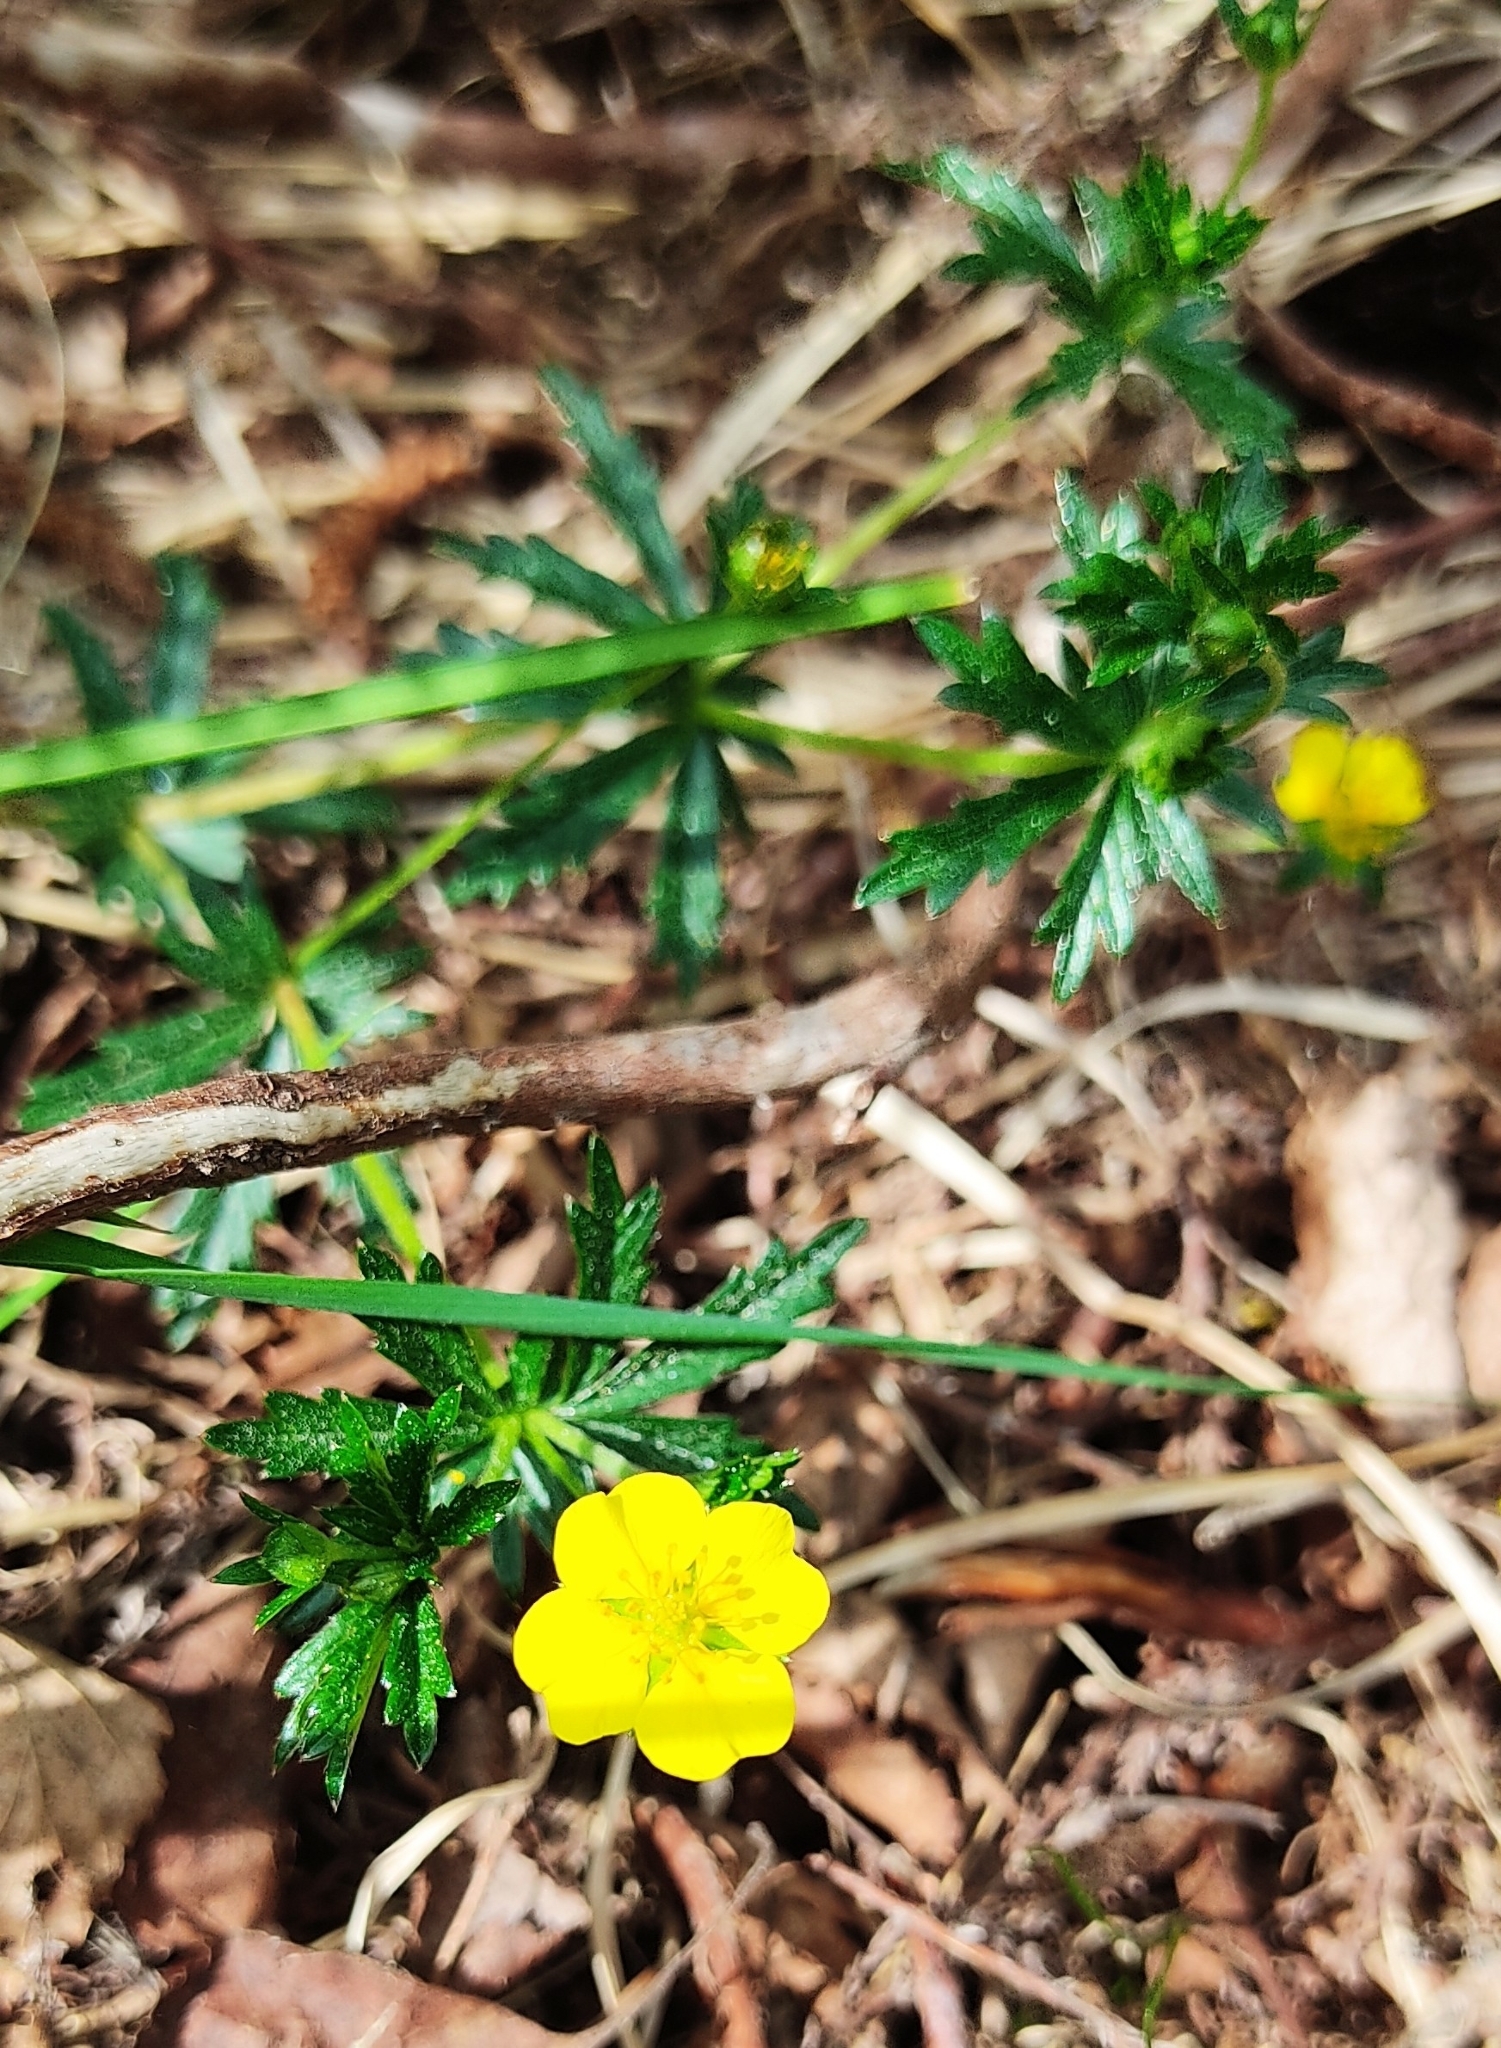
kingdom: Plantae
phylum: Tracheophyta
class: Magnoliopsida
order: Rosales
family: Rosaceae
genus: Potentilla
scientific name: Potentilla erecta
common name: Tormentil
